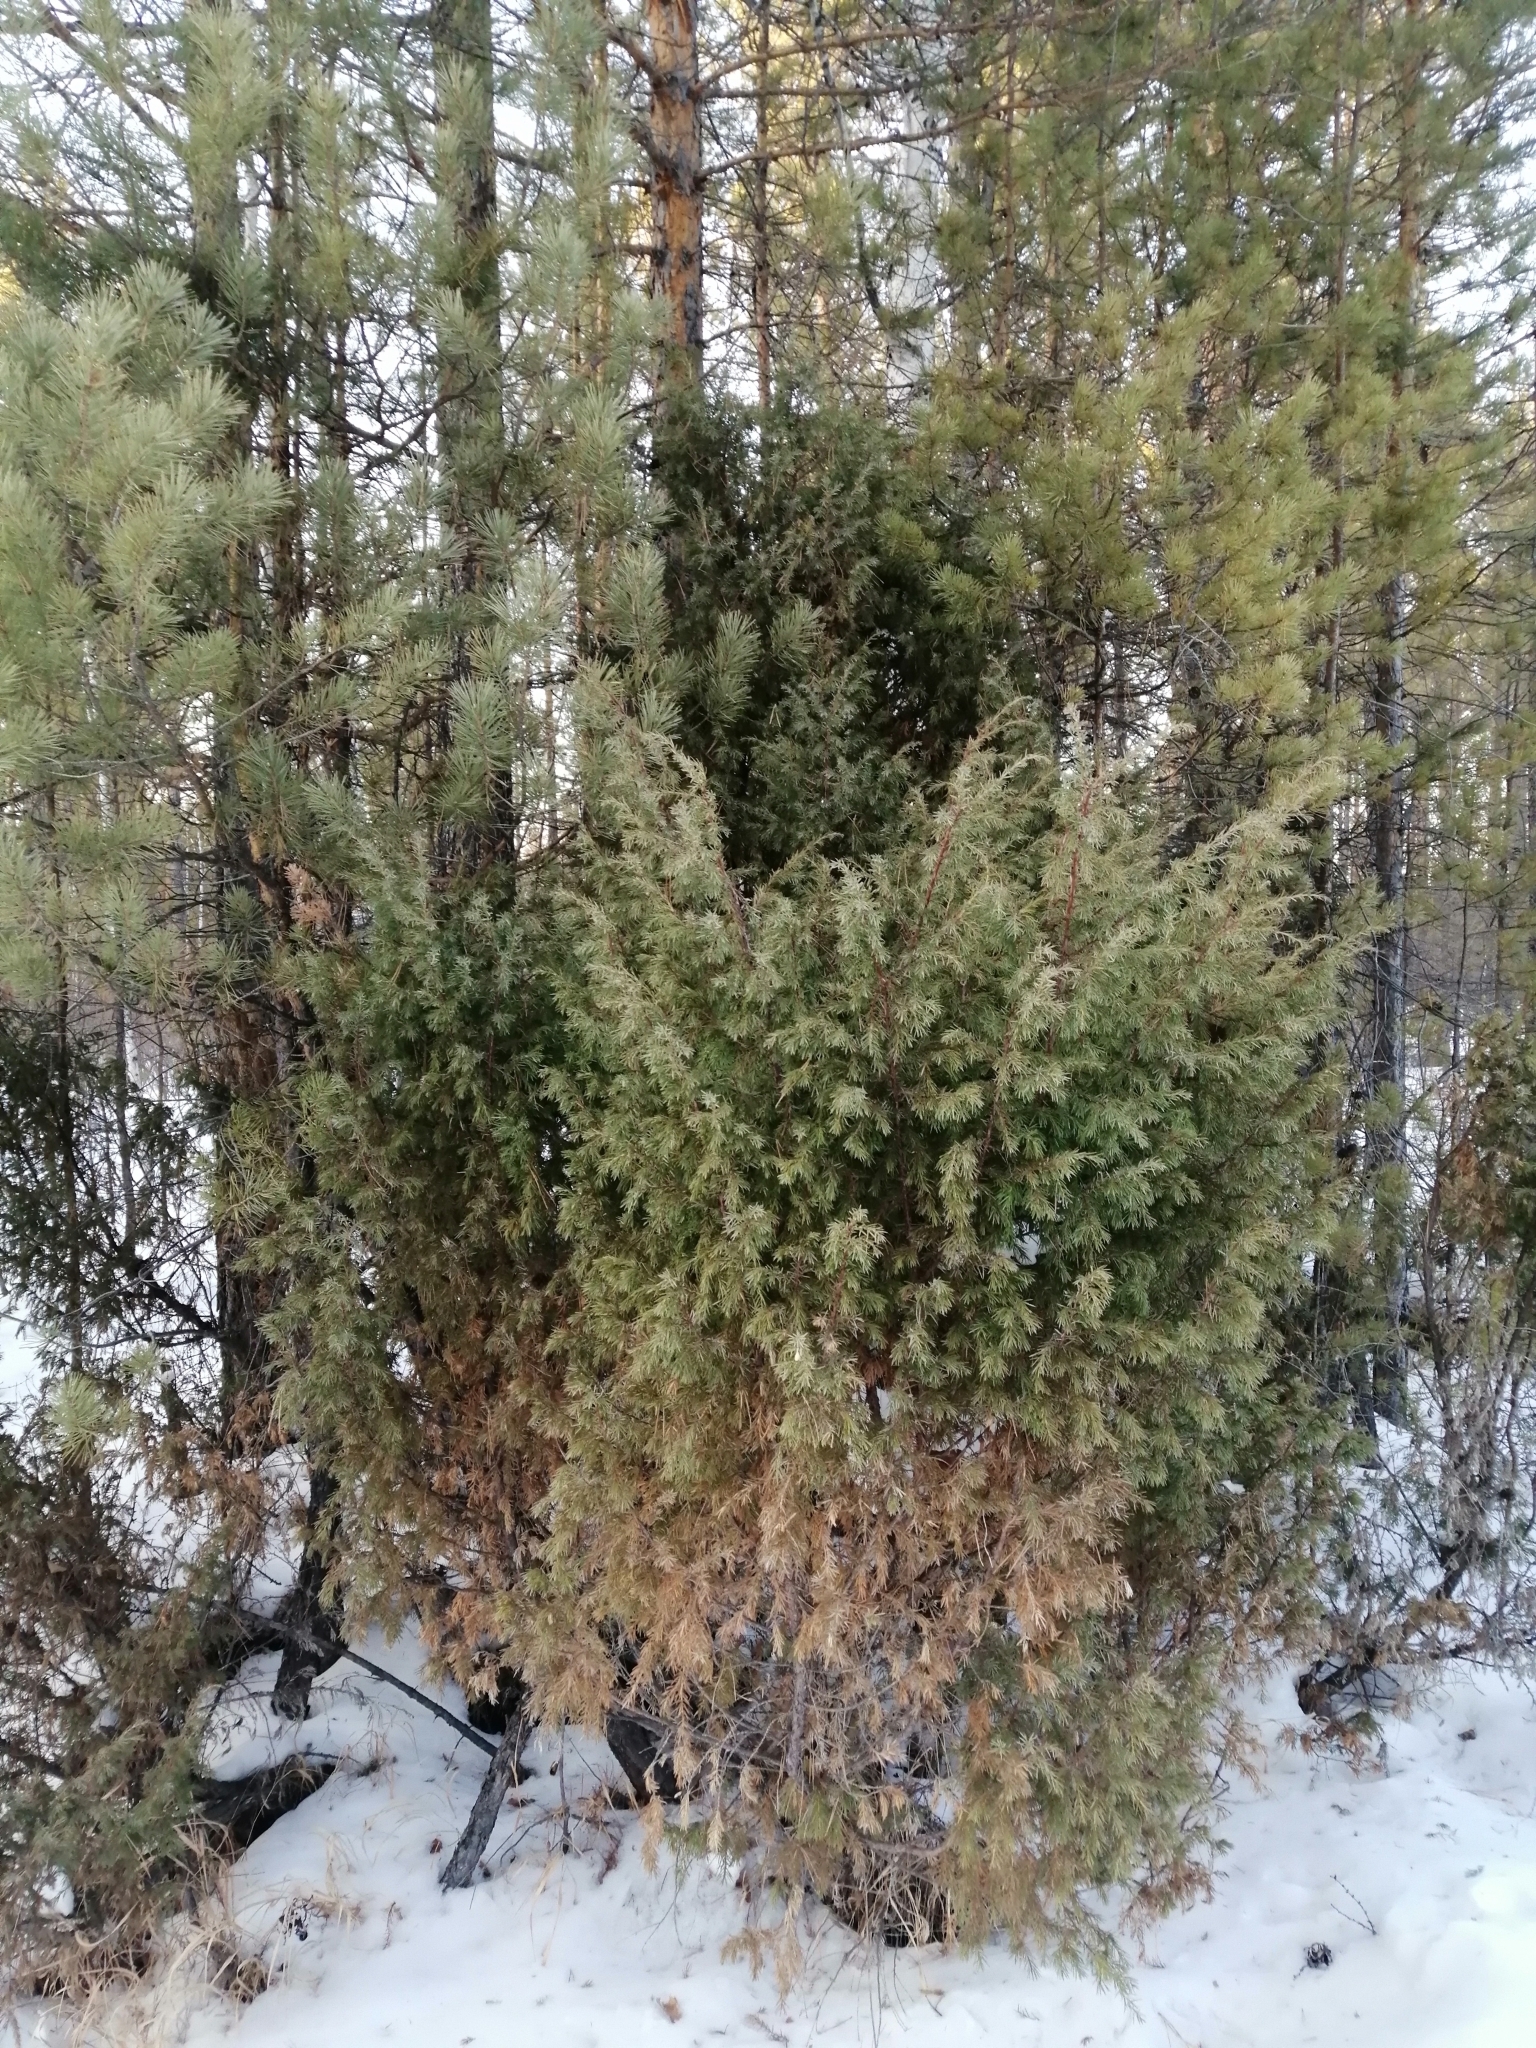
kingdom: Plantae
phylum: Tracheophyta
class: Pinopsida
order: Pinales
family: Cupressaceae
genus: Juniperus
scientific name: Juniperus communis
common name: Common juniper
